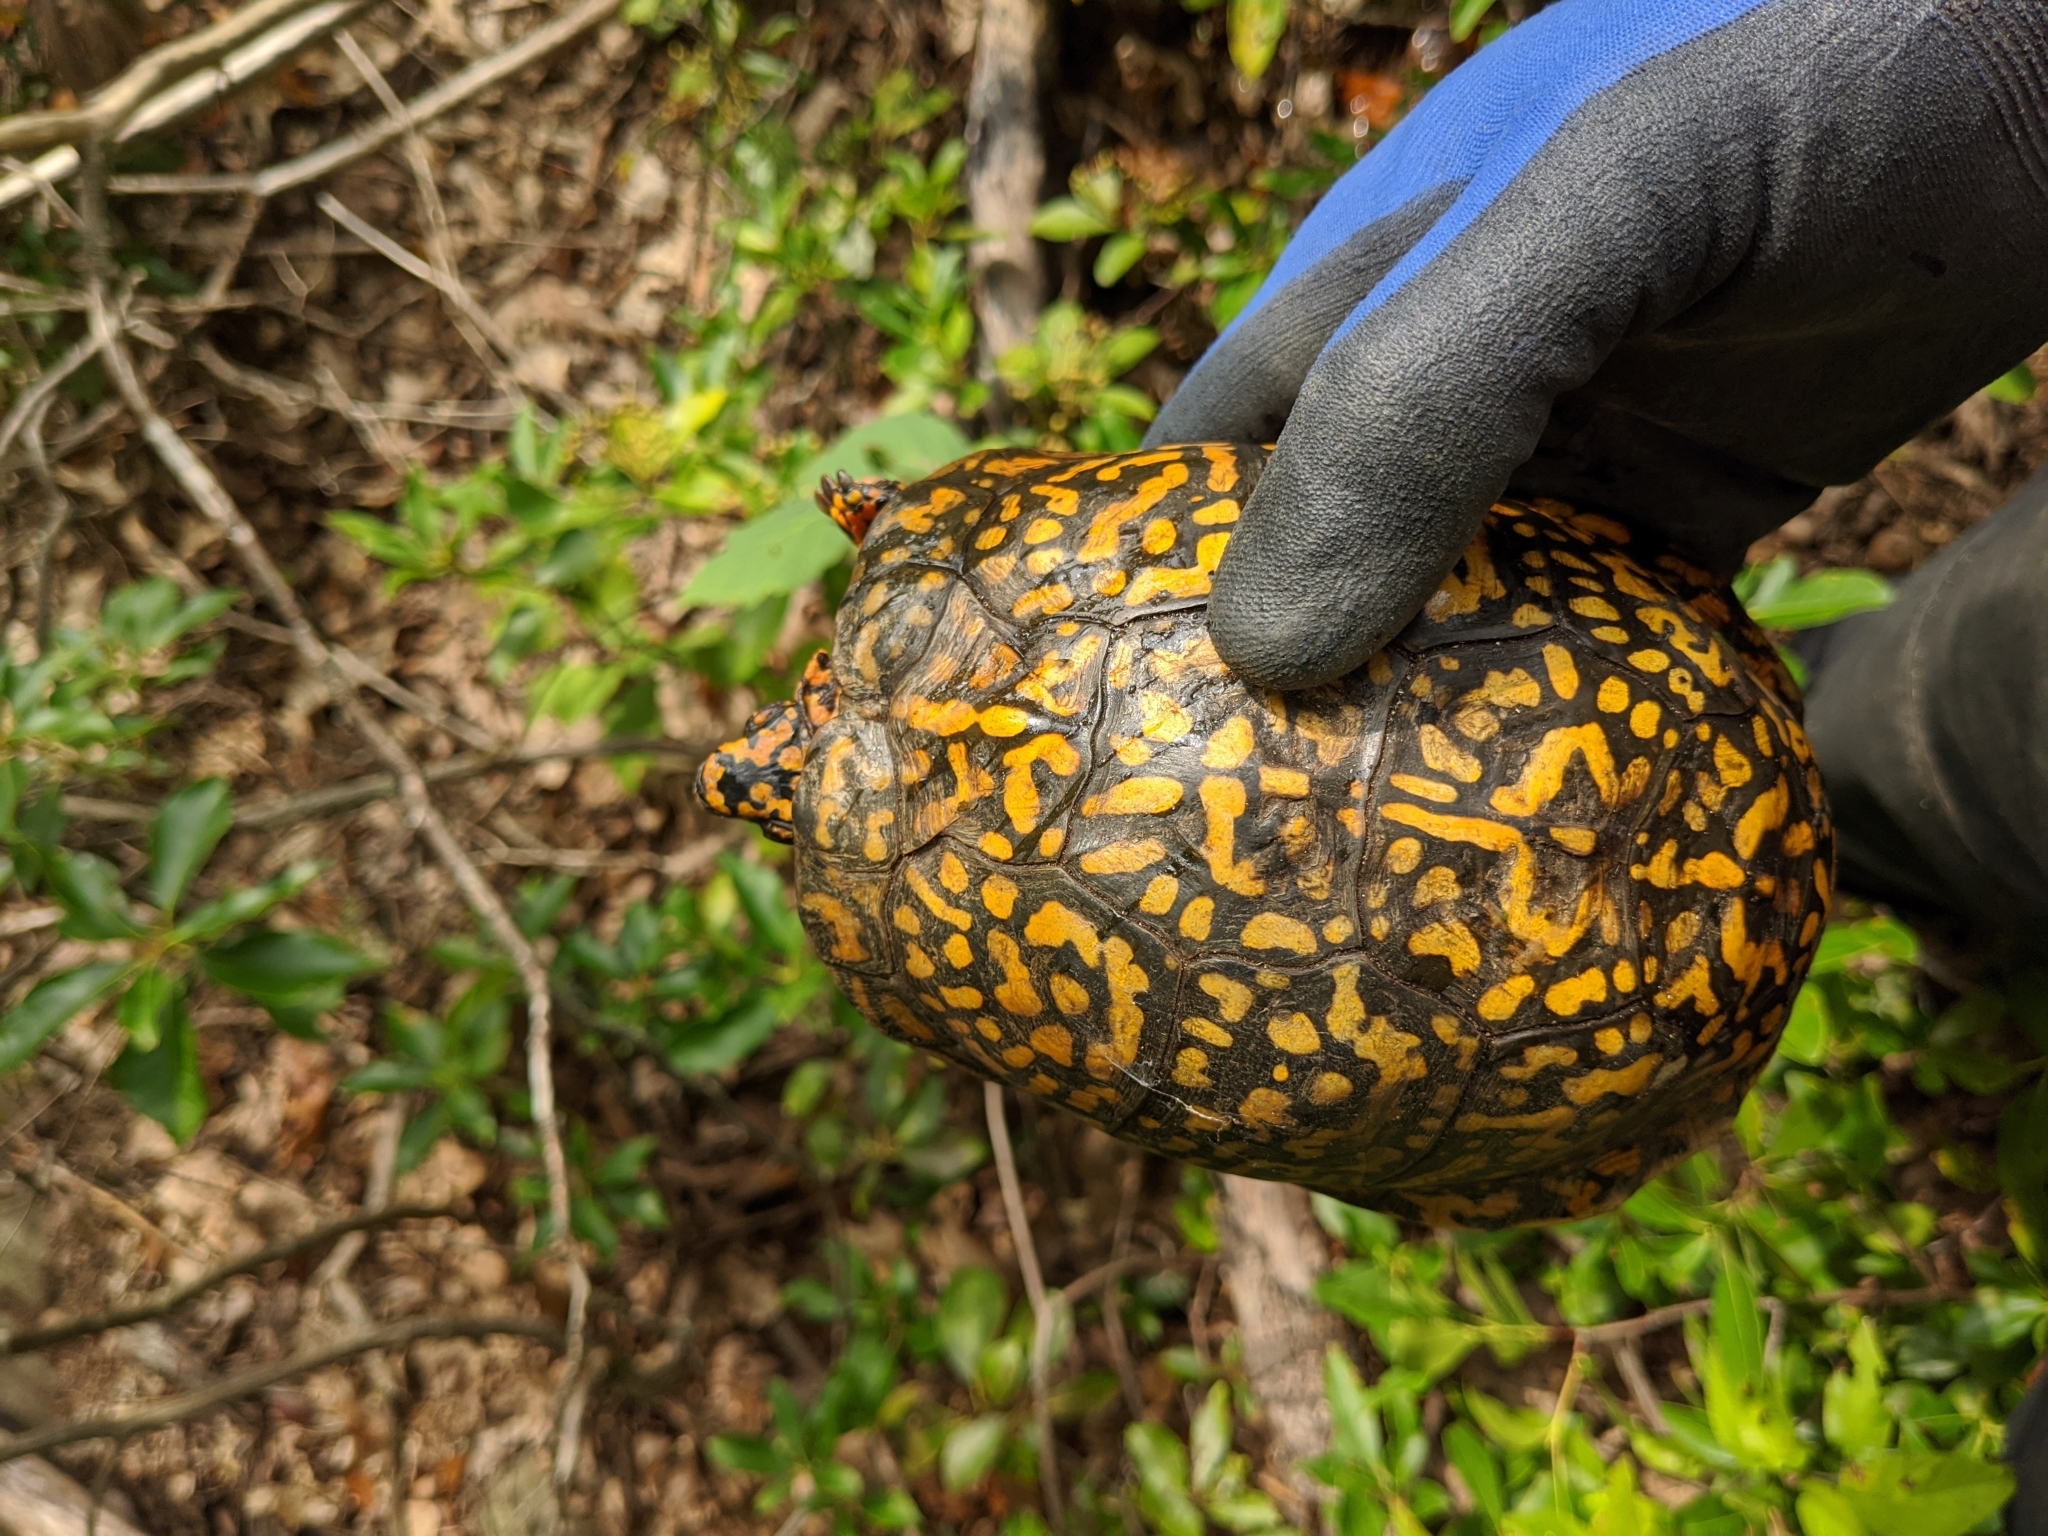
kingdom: Animalia
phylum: Chordata
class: Testudines
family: Emydidae
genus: Terrapene
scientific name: Terrapene carolina
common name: Common box turtle
